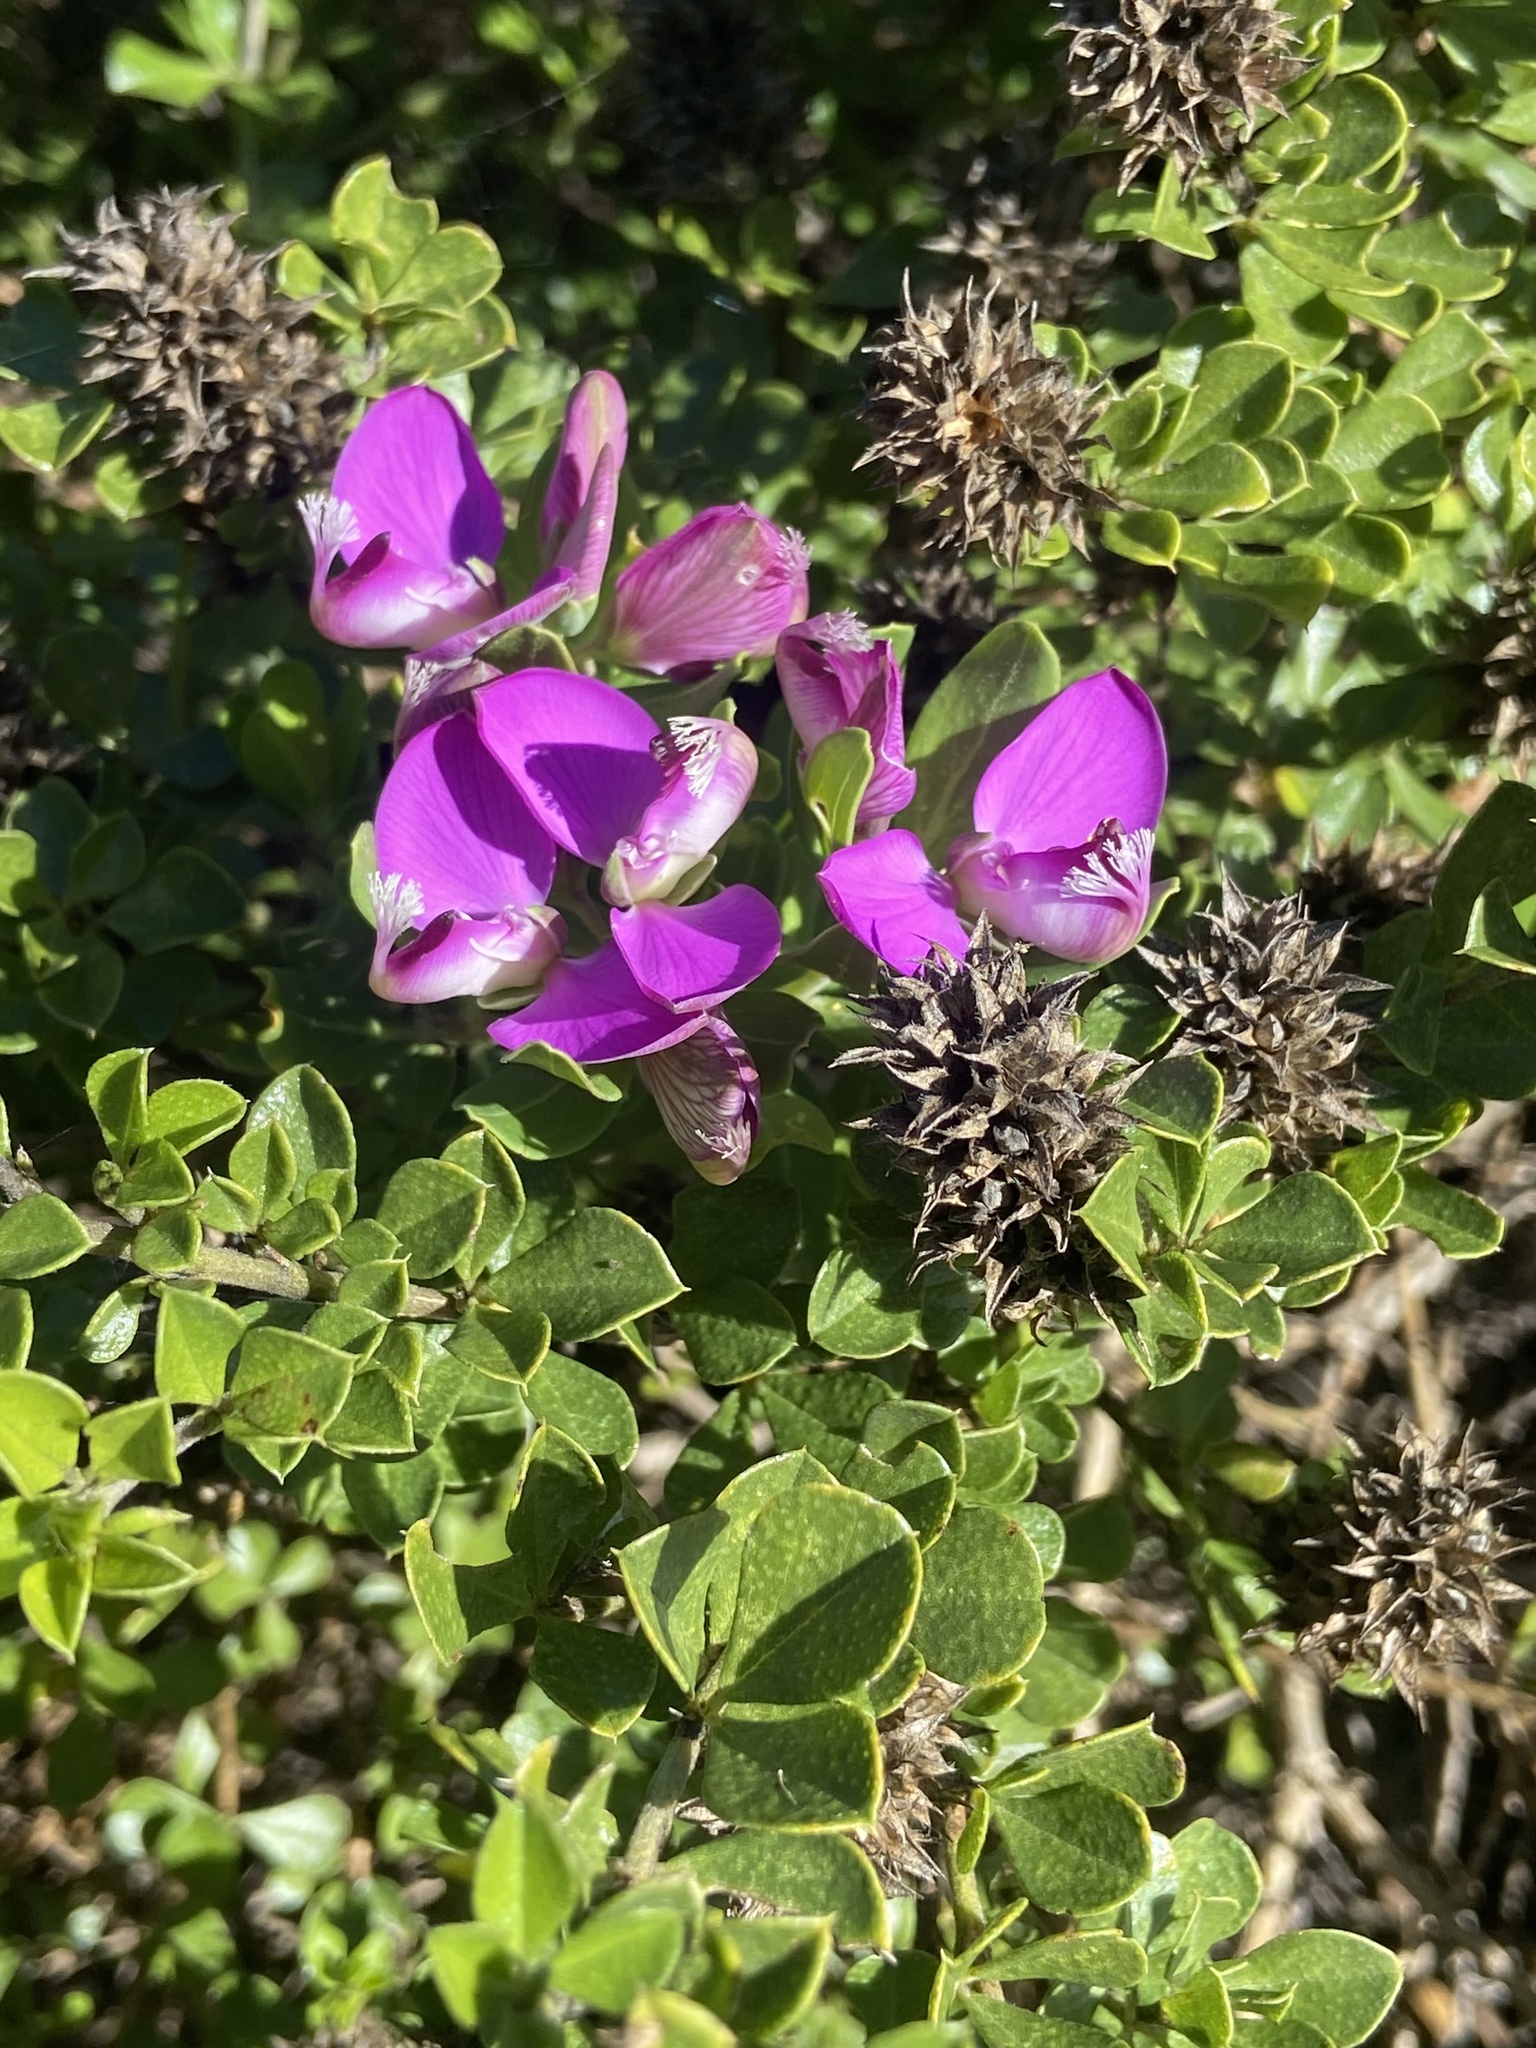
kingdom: Plantae
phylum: Tracheophyta
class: Magnoliopsida
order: Fabales
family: Polygalaceae
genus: Polygala
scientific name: Polygala myrtifolia
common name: Myrtle-leaf milkwort
